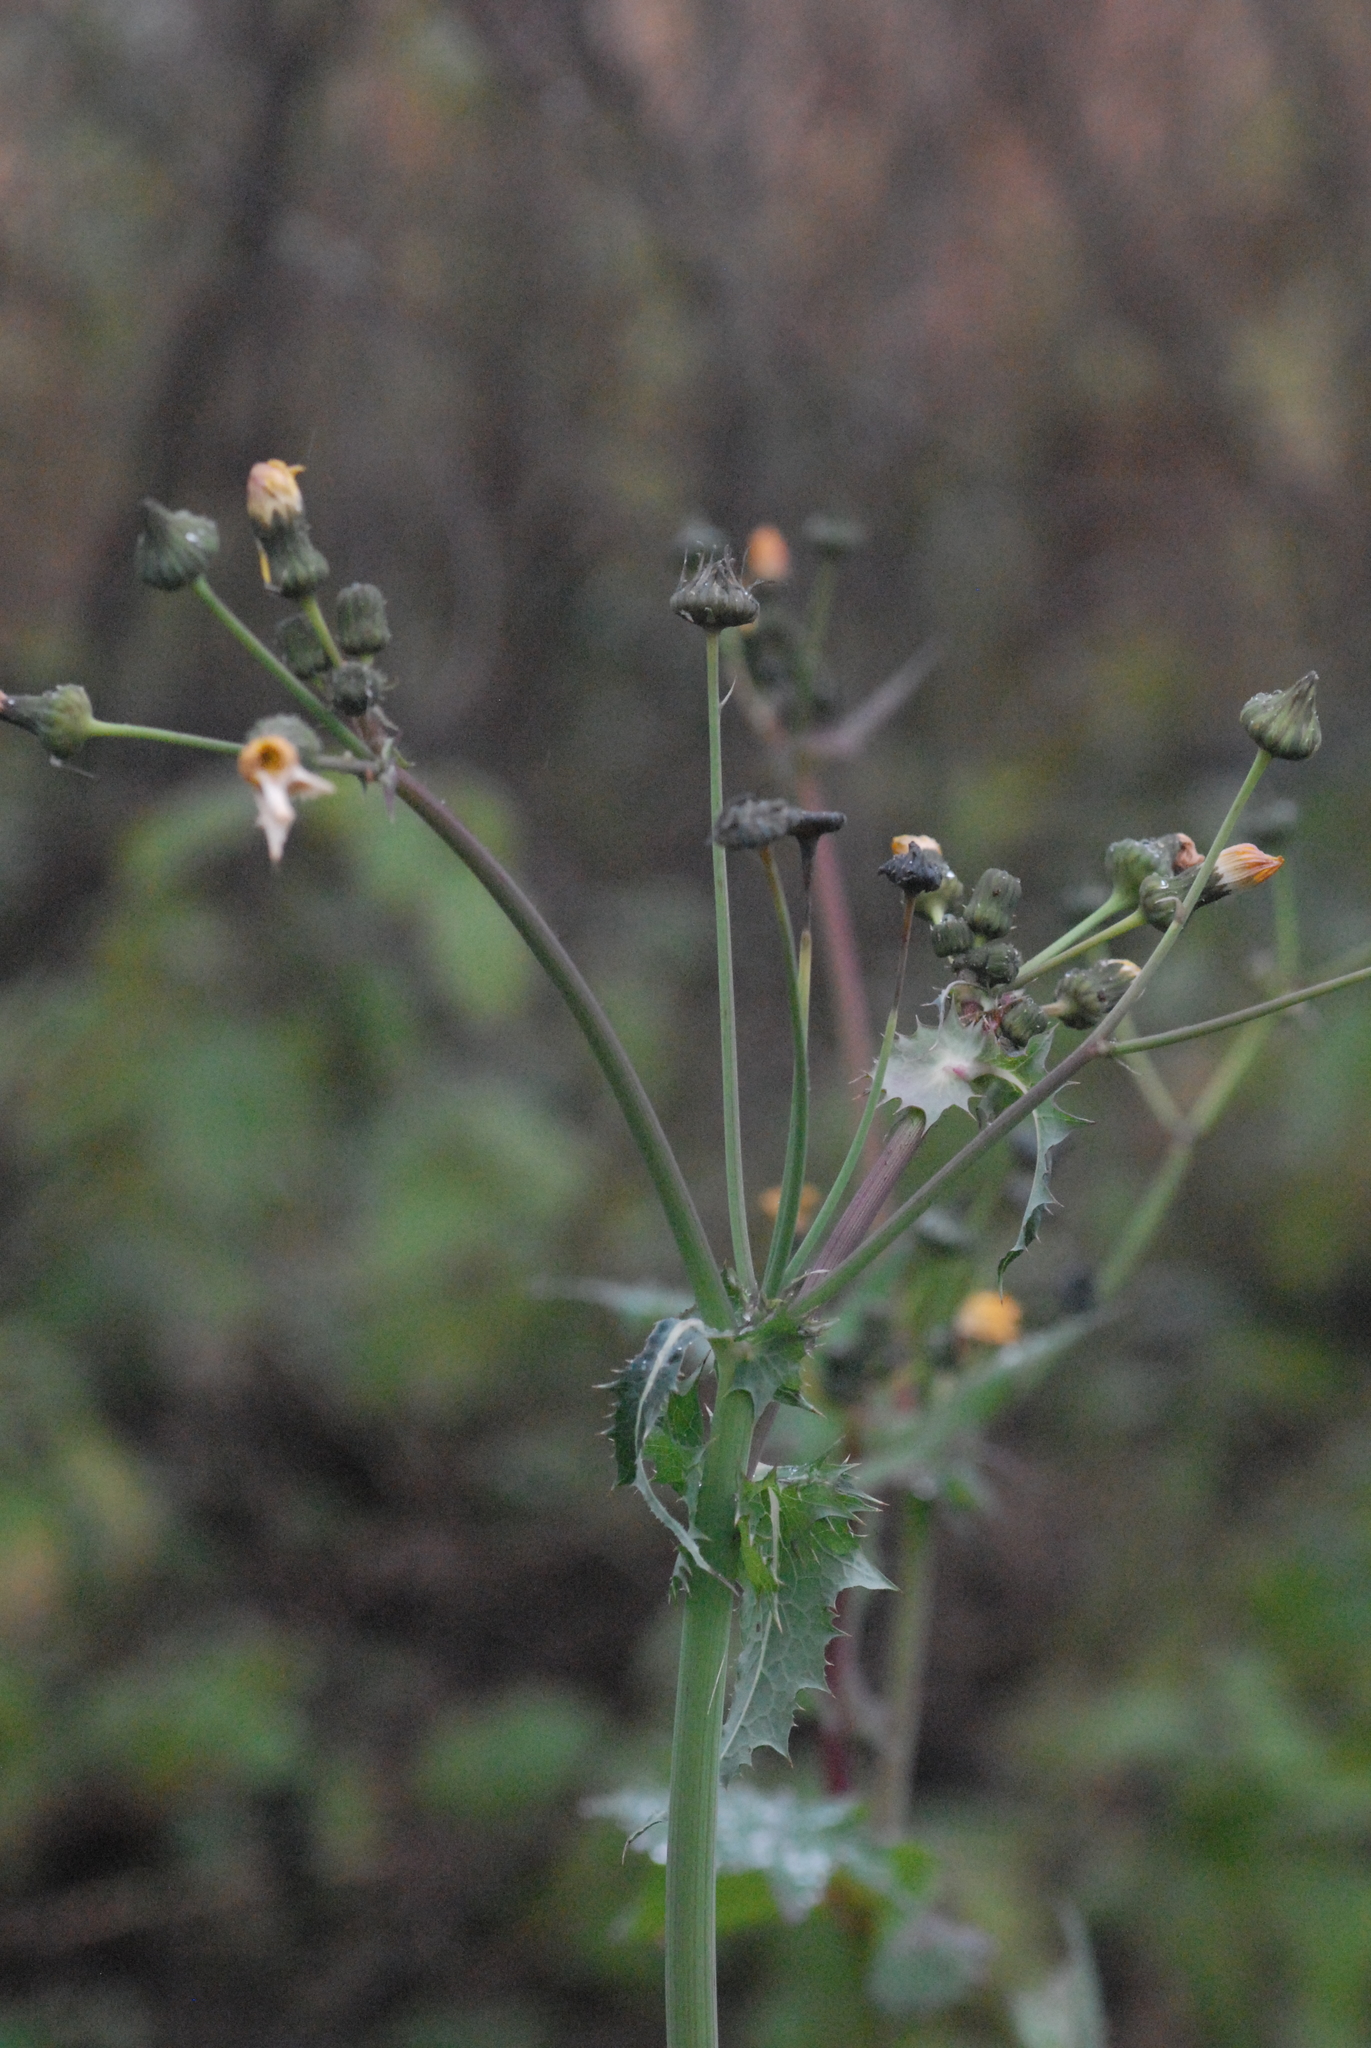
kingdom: Plantae
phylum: Tracheophyta
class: Magnoliopsida
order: Asterales
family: Asteraceae
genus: Sonchus
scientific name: Sonchus asper
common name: Prickly sow-thistle
